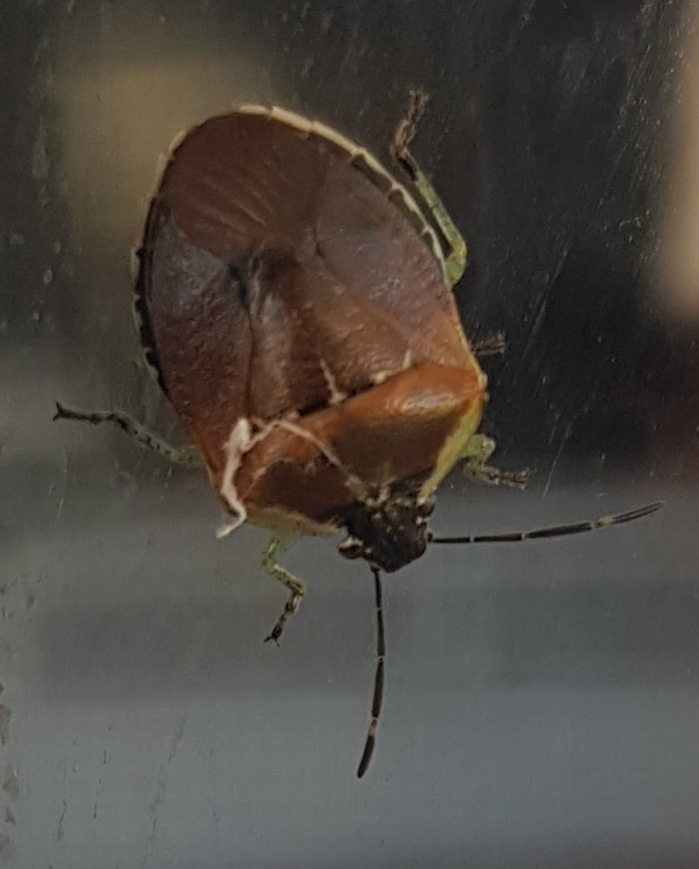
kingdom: Animalia
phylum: Arthropoda
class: Insecta
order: Hemiptera
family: Pentatomidae
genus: Monteithiella
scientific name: Monteithiella
